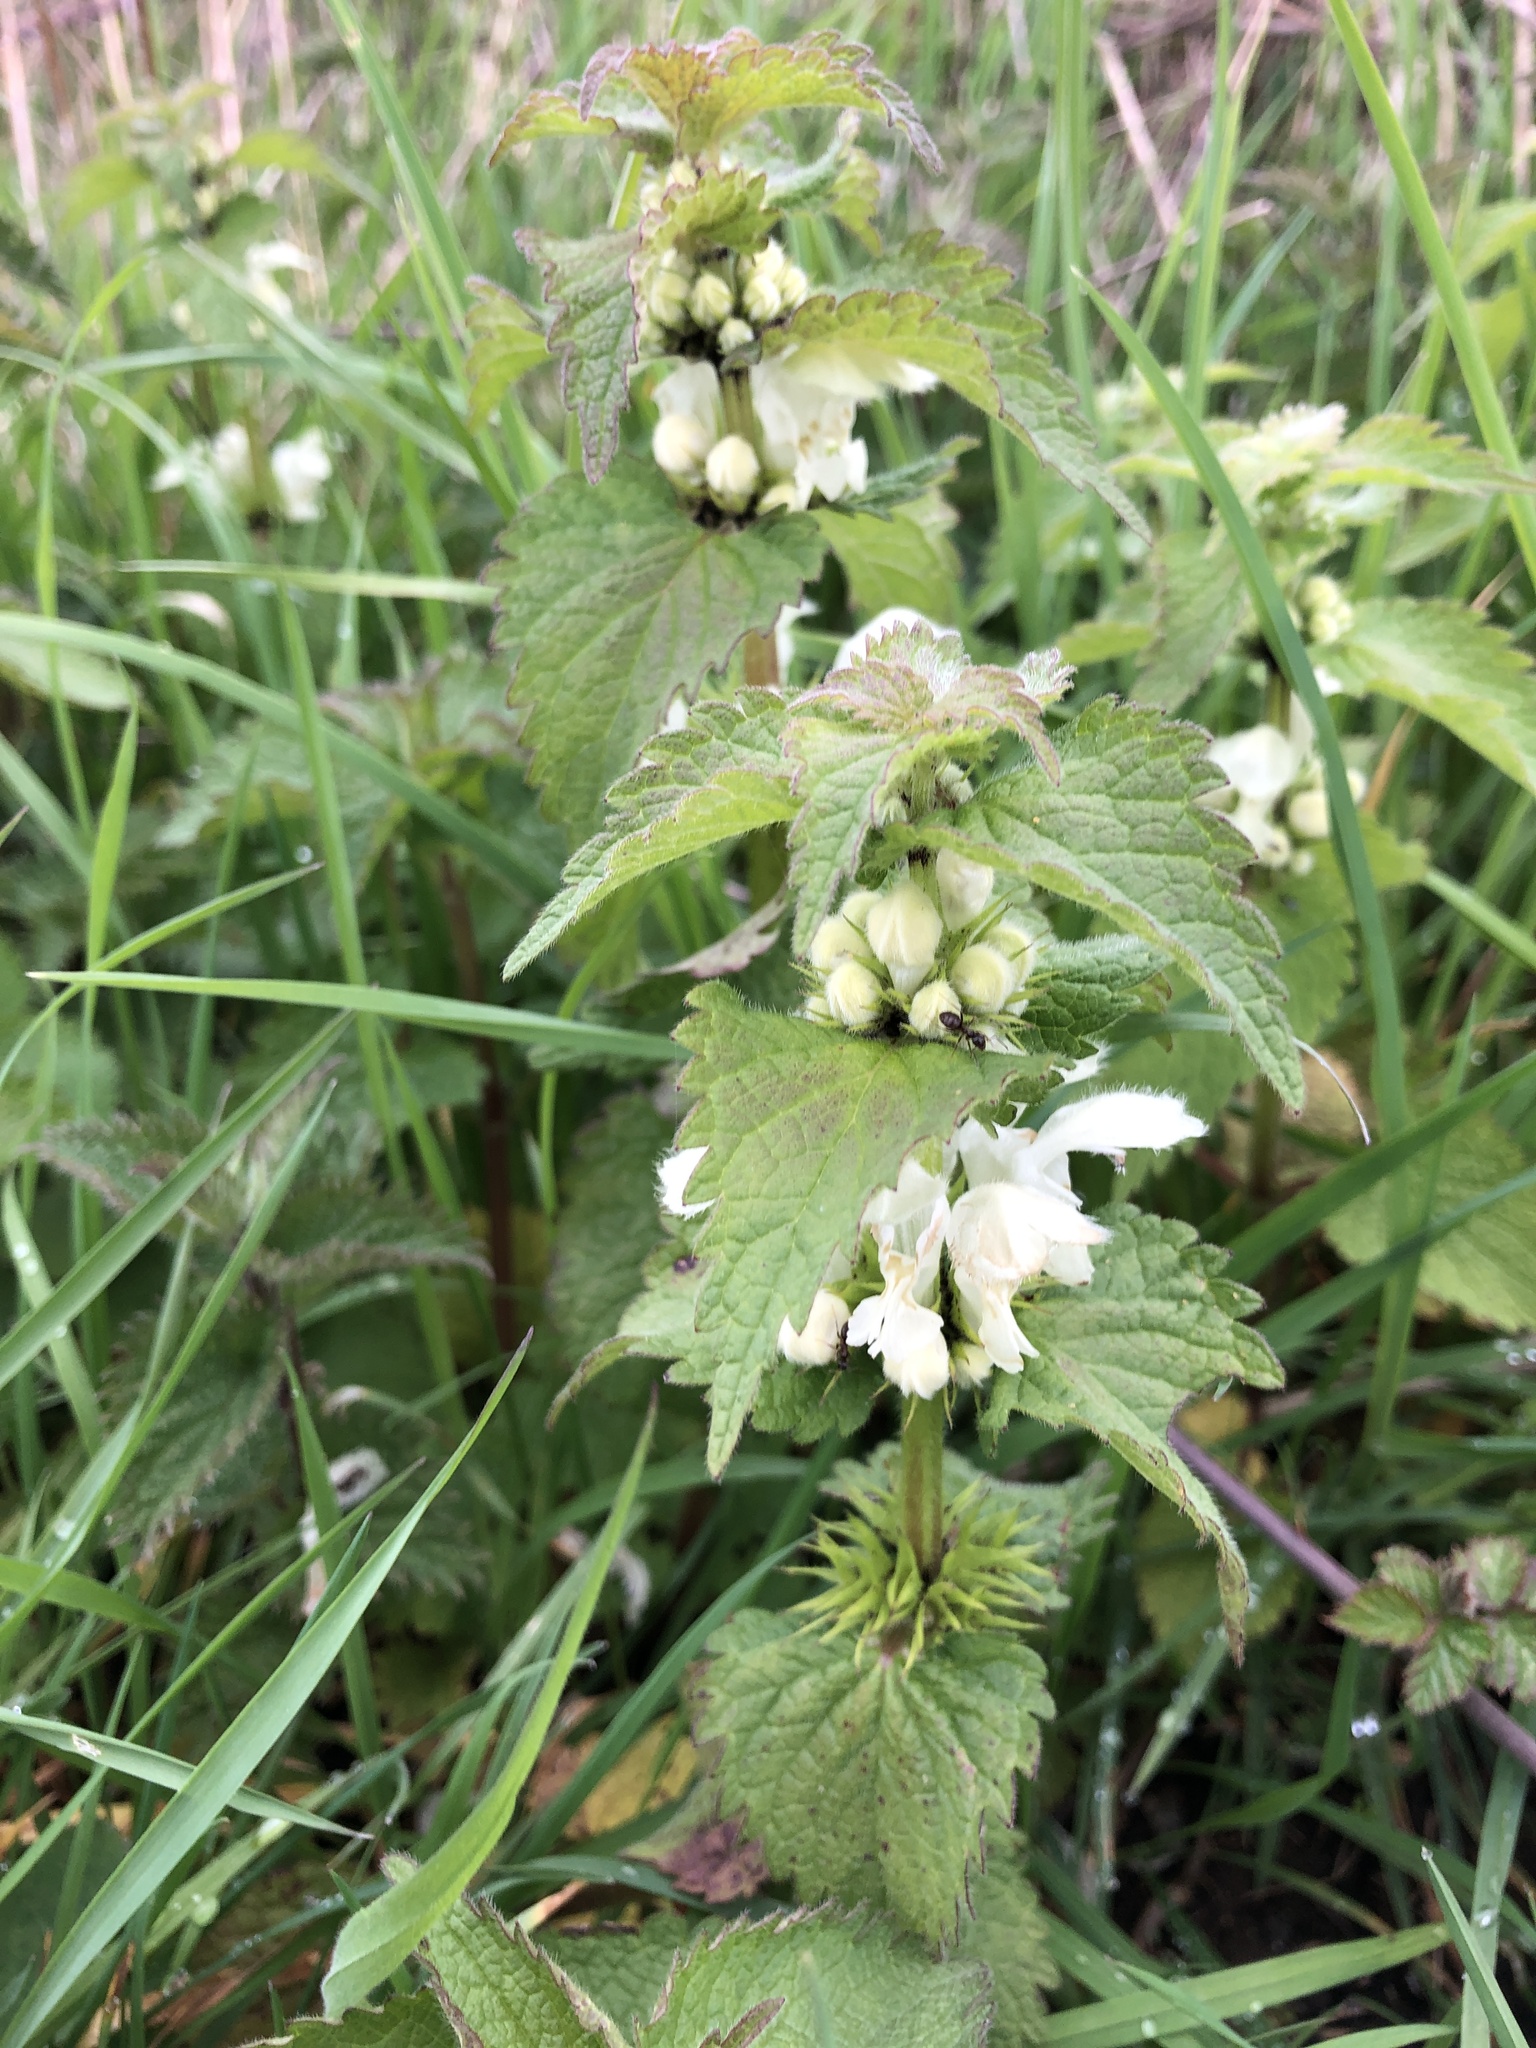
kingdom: Plantae
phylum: Tracheophyta
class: Magnoliopsida
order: Lamiales
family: Lamiaceae
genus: Lamium
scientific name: Lamium album
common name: White dead-nettle
